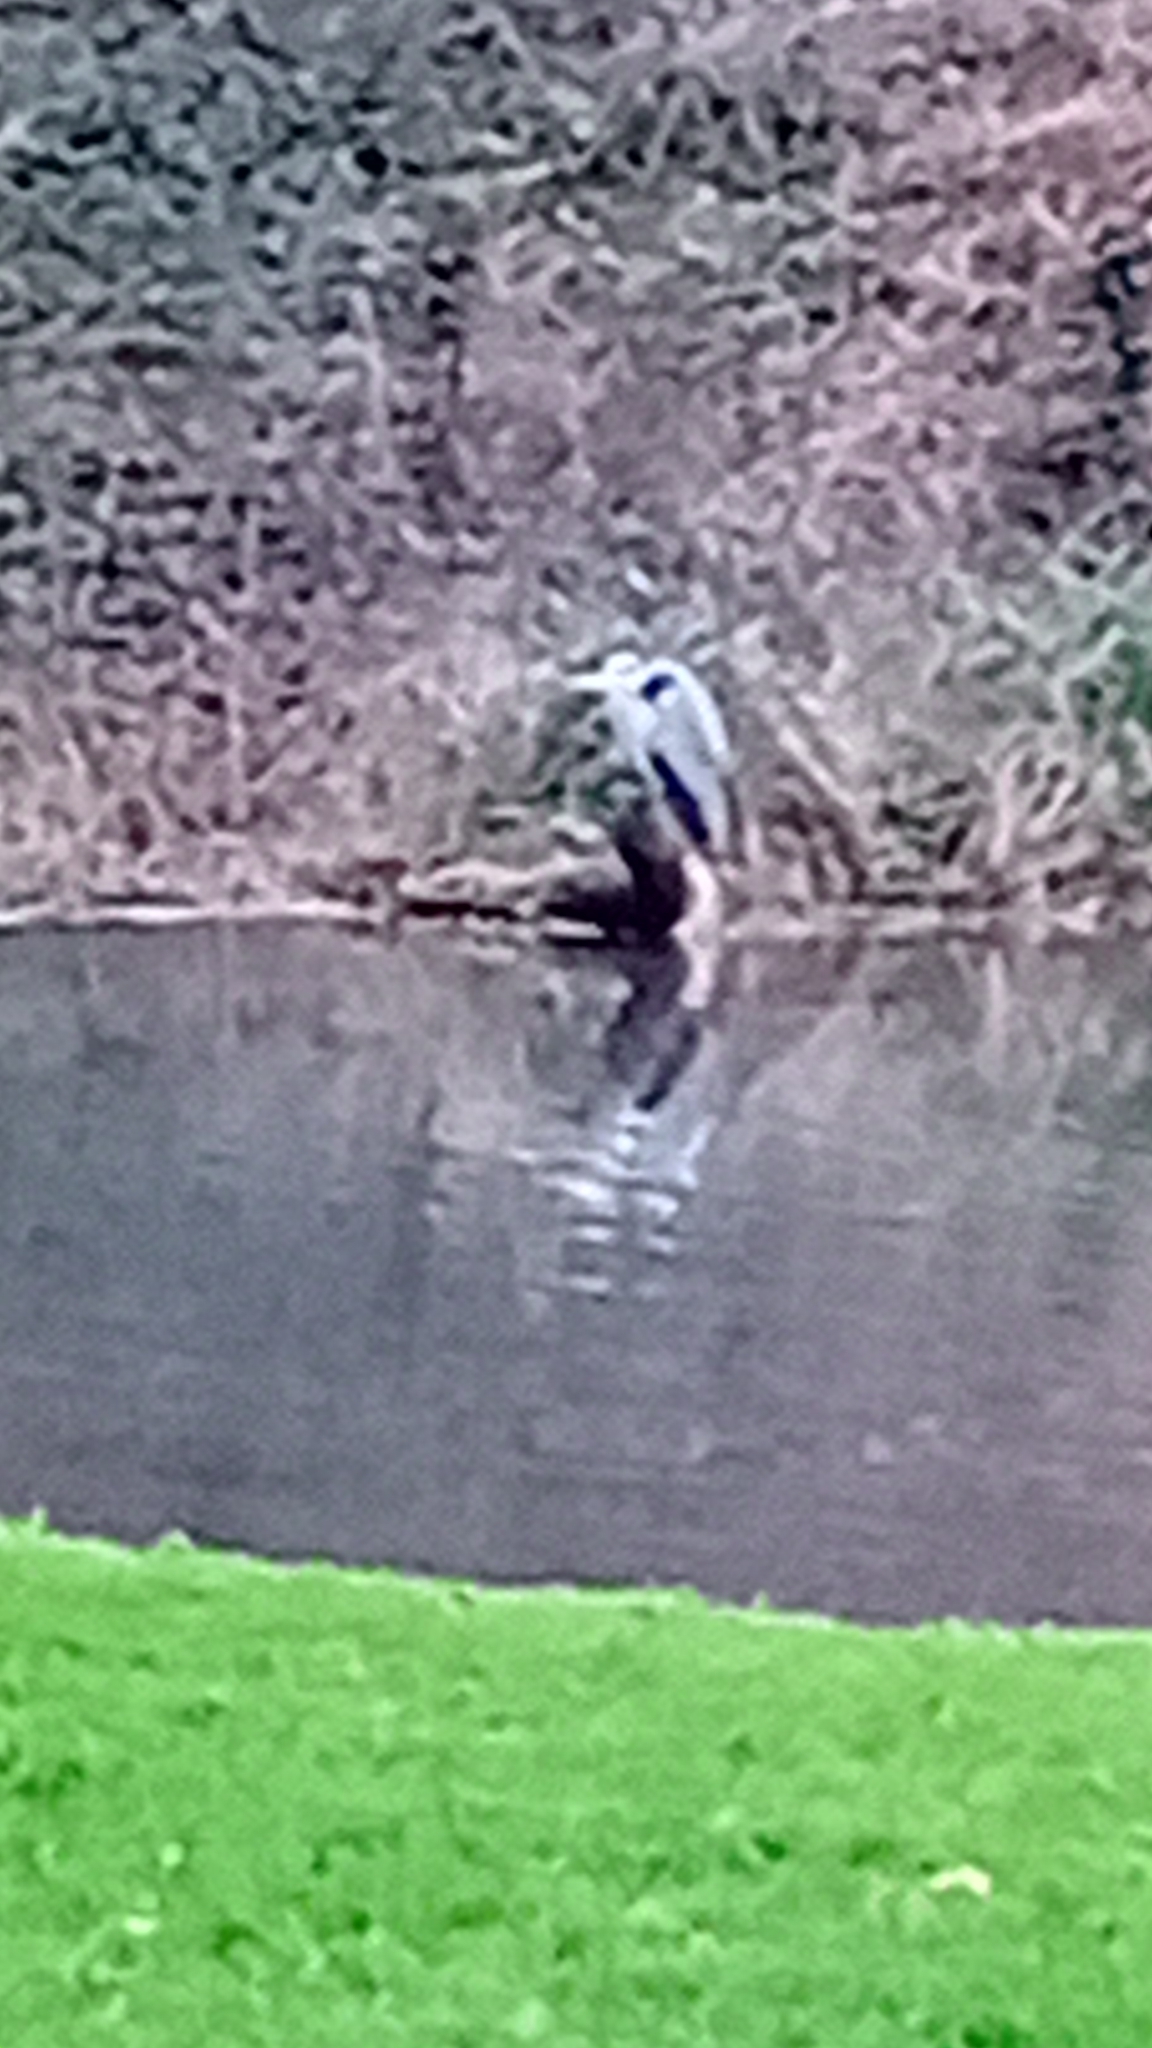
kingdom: Animalia
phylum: Chordata
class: Aves
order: Pelecaniformes
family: Ardeidae
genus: Ardea
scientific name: Ardea cinerea
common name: Grey heron
